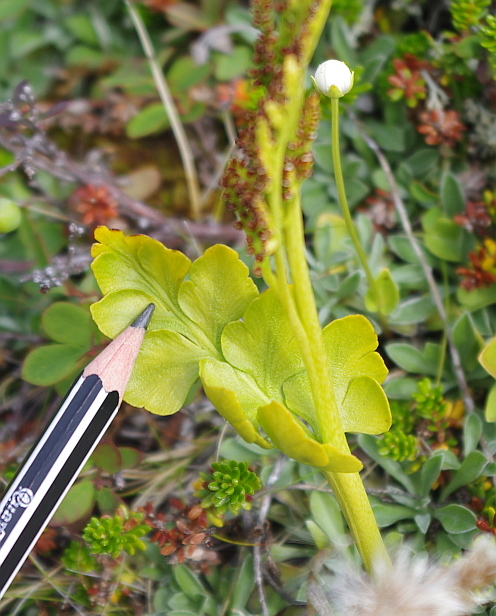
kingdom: Plantae
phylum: Tracheophyta
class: Polypodiopsida
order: Ophioglossales
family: Ophioglossaceae
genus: Botrychium
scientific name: Botrychium boreale
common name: Boreal moonwort
